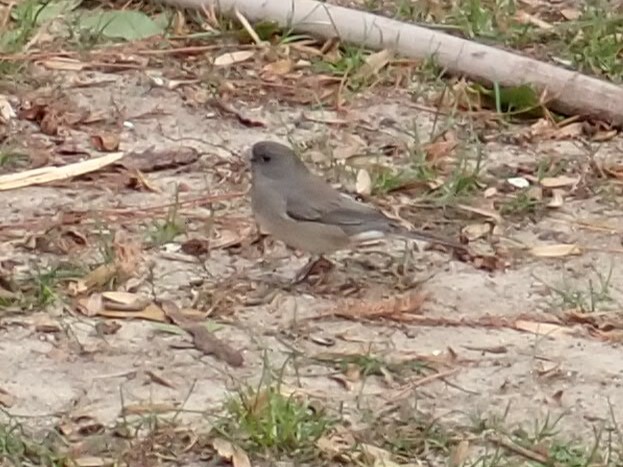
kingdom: Animalia
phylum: Chordata
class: Aves
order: Passeriformes
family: Passerellidae
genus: Junco
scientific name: Junco hyemalis
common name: Dark-eyed junco
